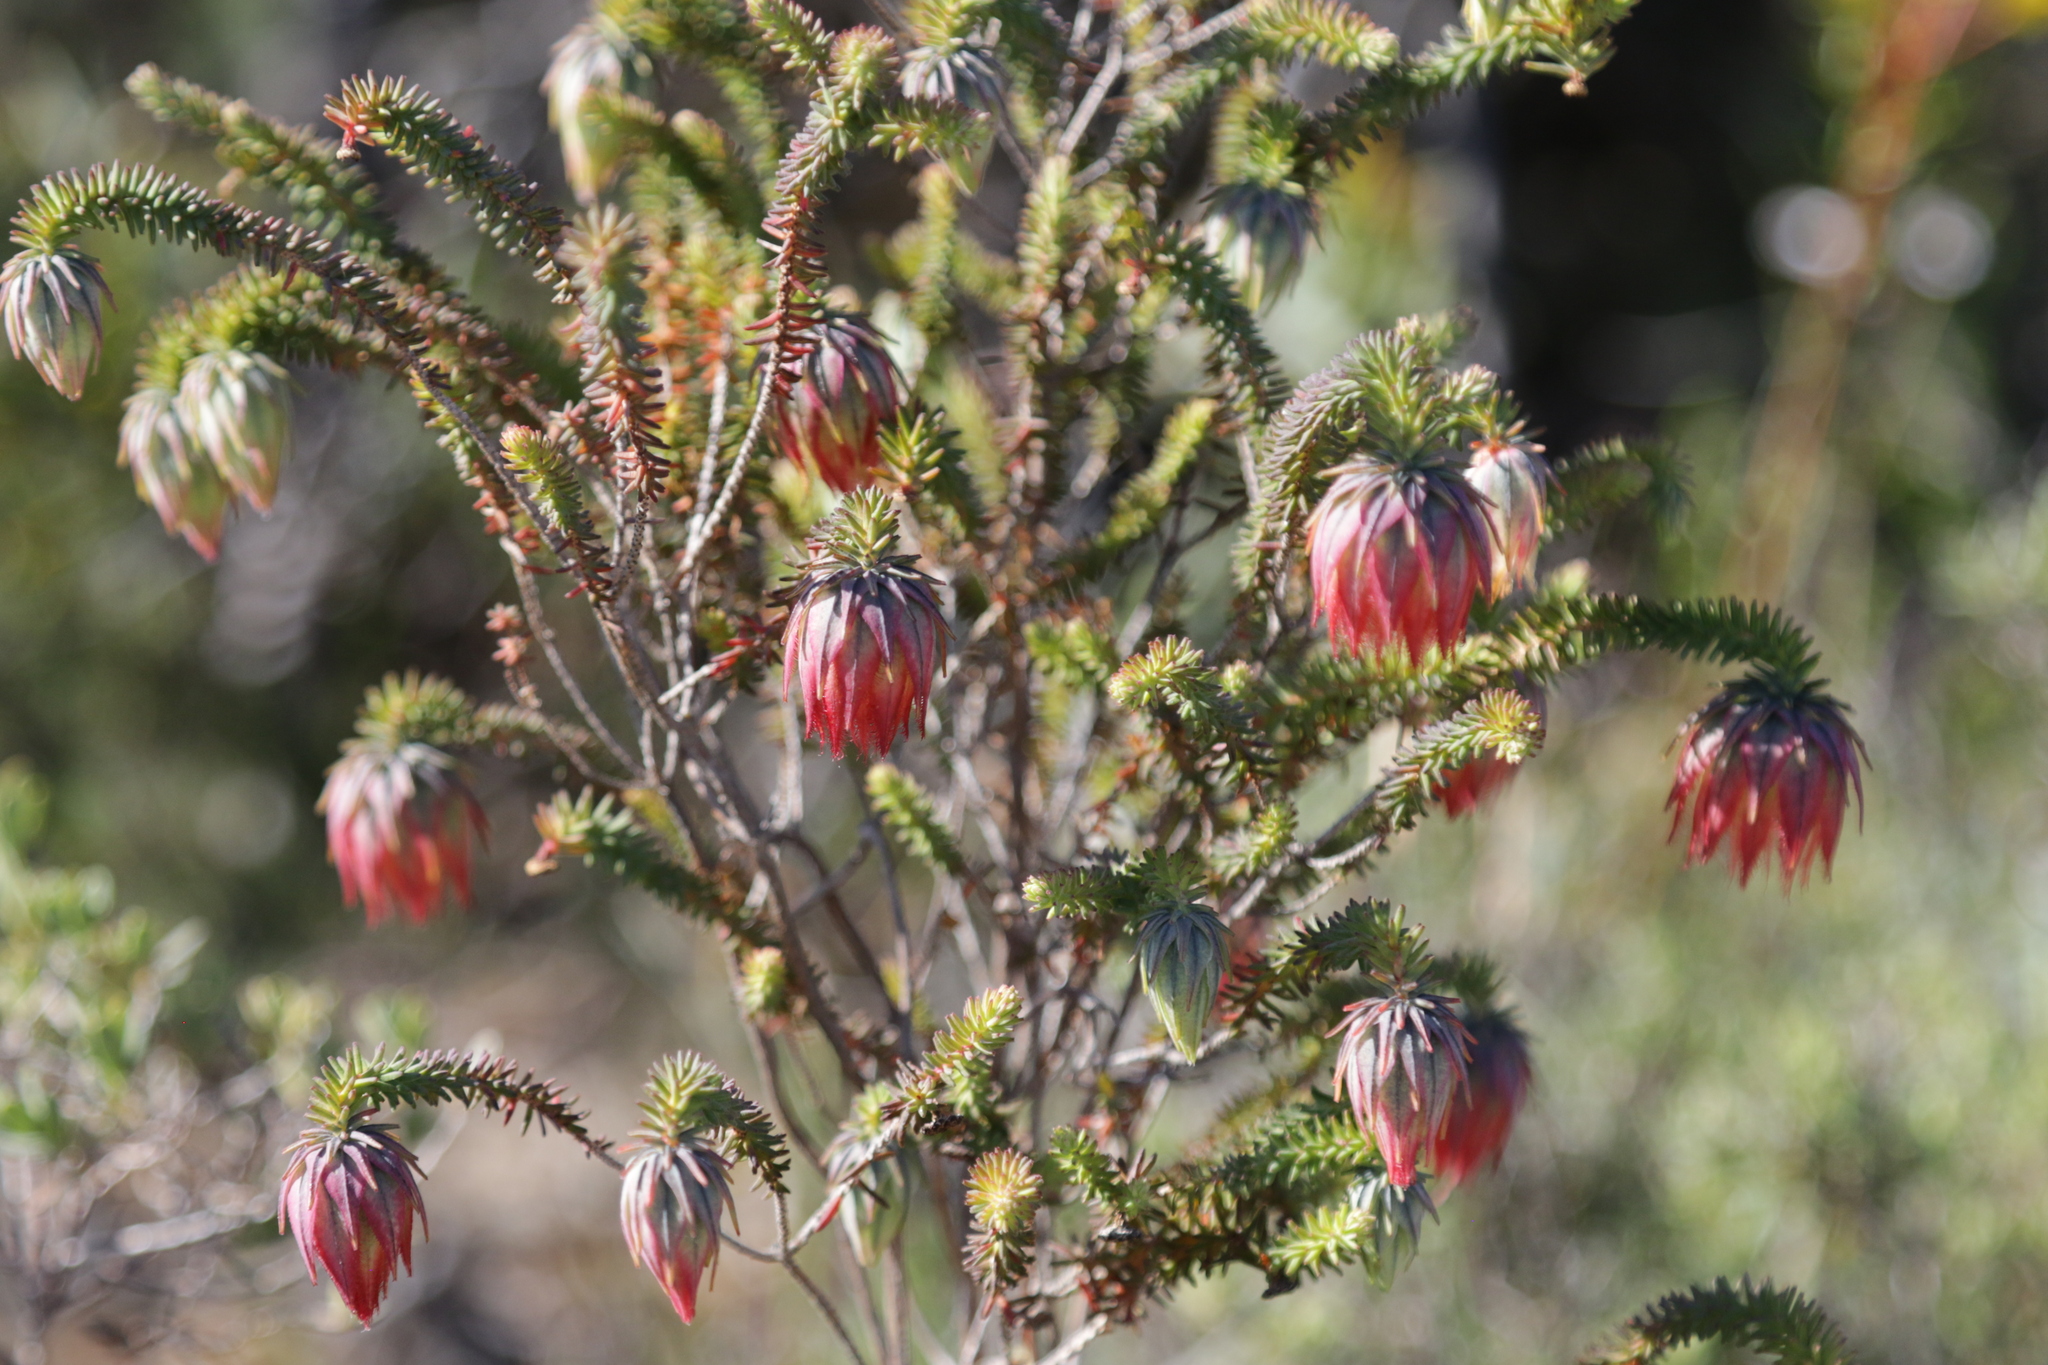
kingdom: Plantae
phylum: Tracheophyta
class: Magnoliopsida
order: Myrtales
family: Myrtaceae
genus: Darwinia
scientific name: Darwinia neildiana
